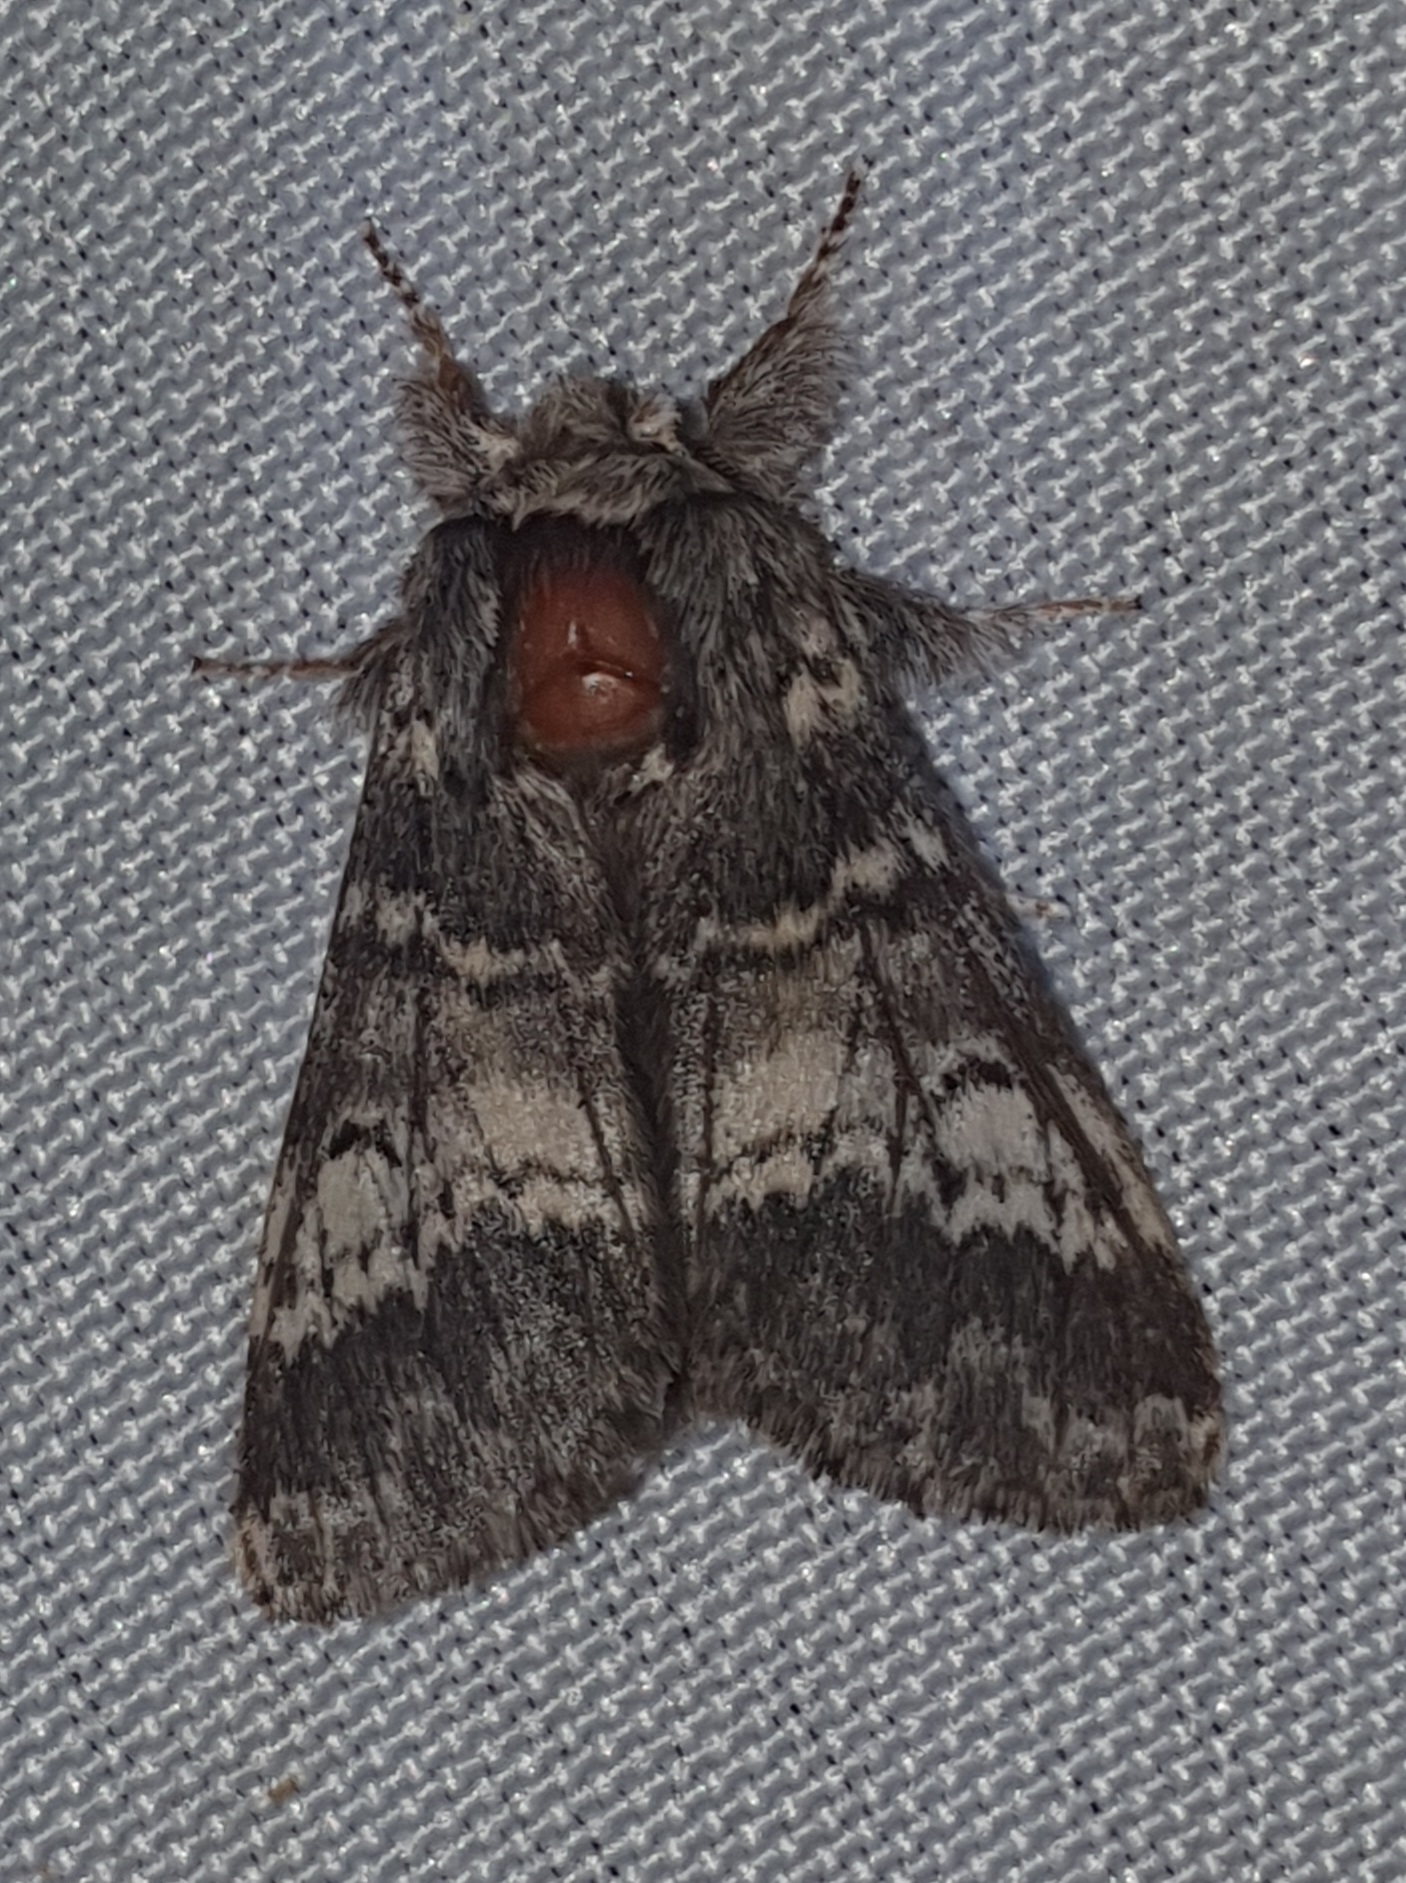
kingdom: Animalia
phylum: Arthropoda
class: Insecta
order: Lepidoptera
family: Notodontidae
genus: Drymonia
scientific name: Drymonia ruficornis
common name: Lunar marbled brown
